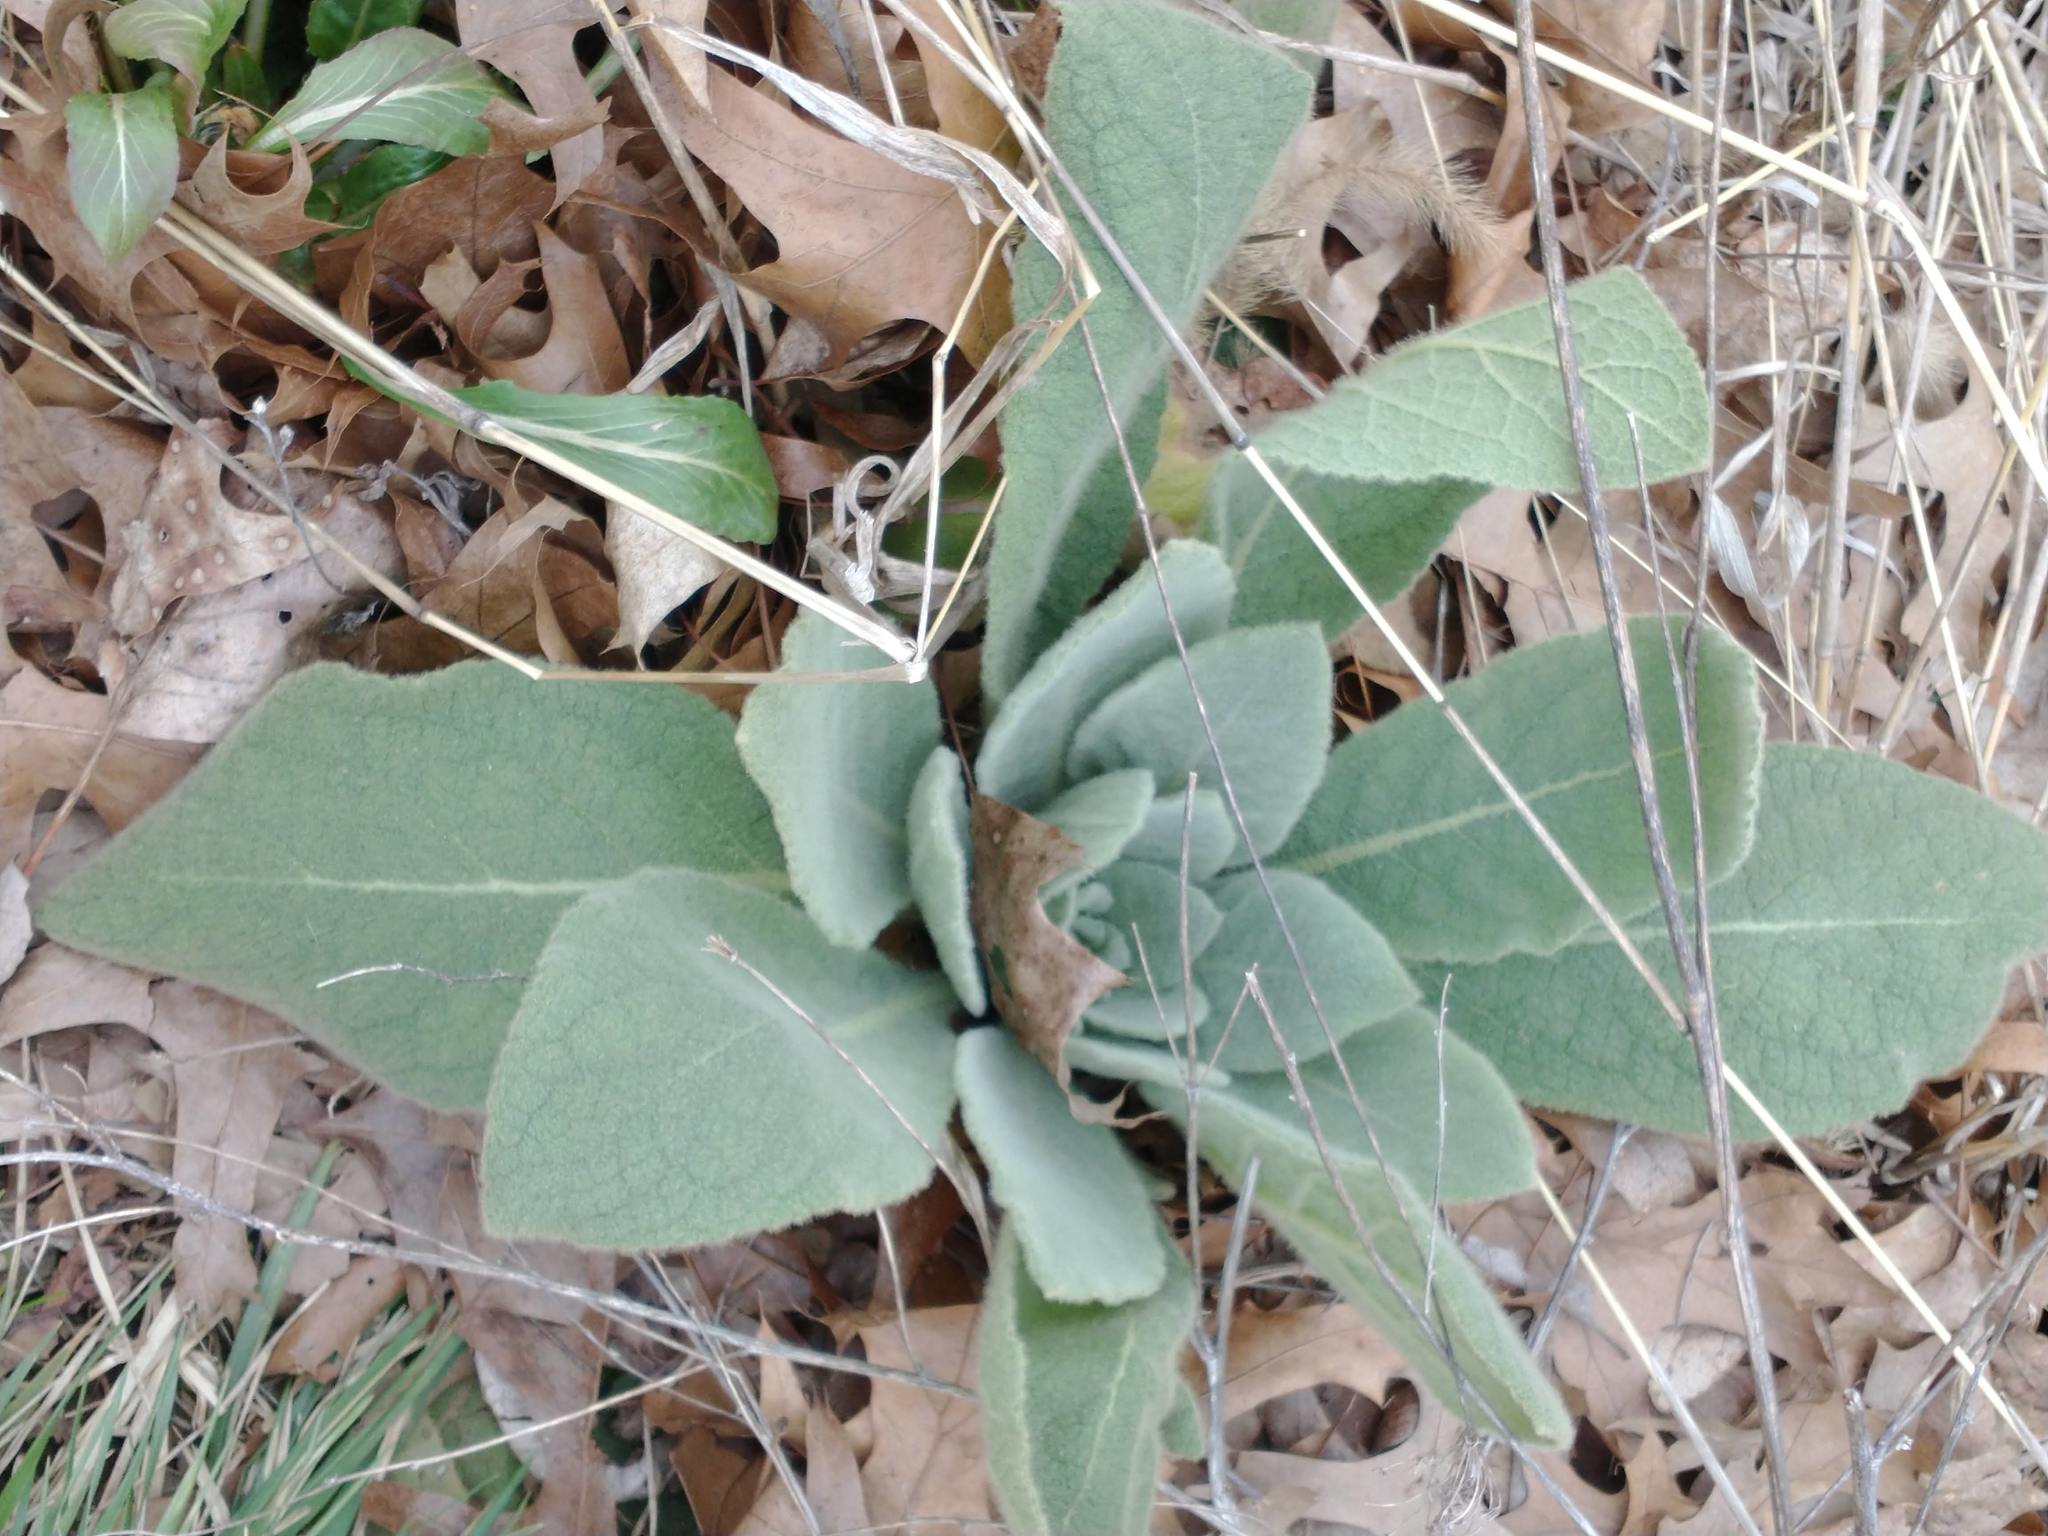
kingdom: Plantae
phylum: Tracheophyta
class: Magnoliopsida
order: Lamiales
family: Scrophulariaceae
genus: Verbascum
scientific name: Verbascum thapsus
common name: Common mullein
